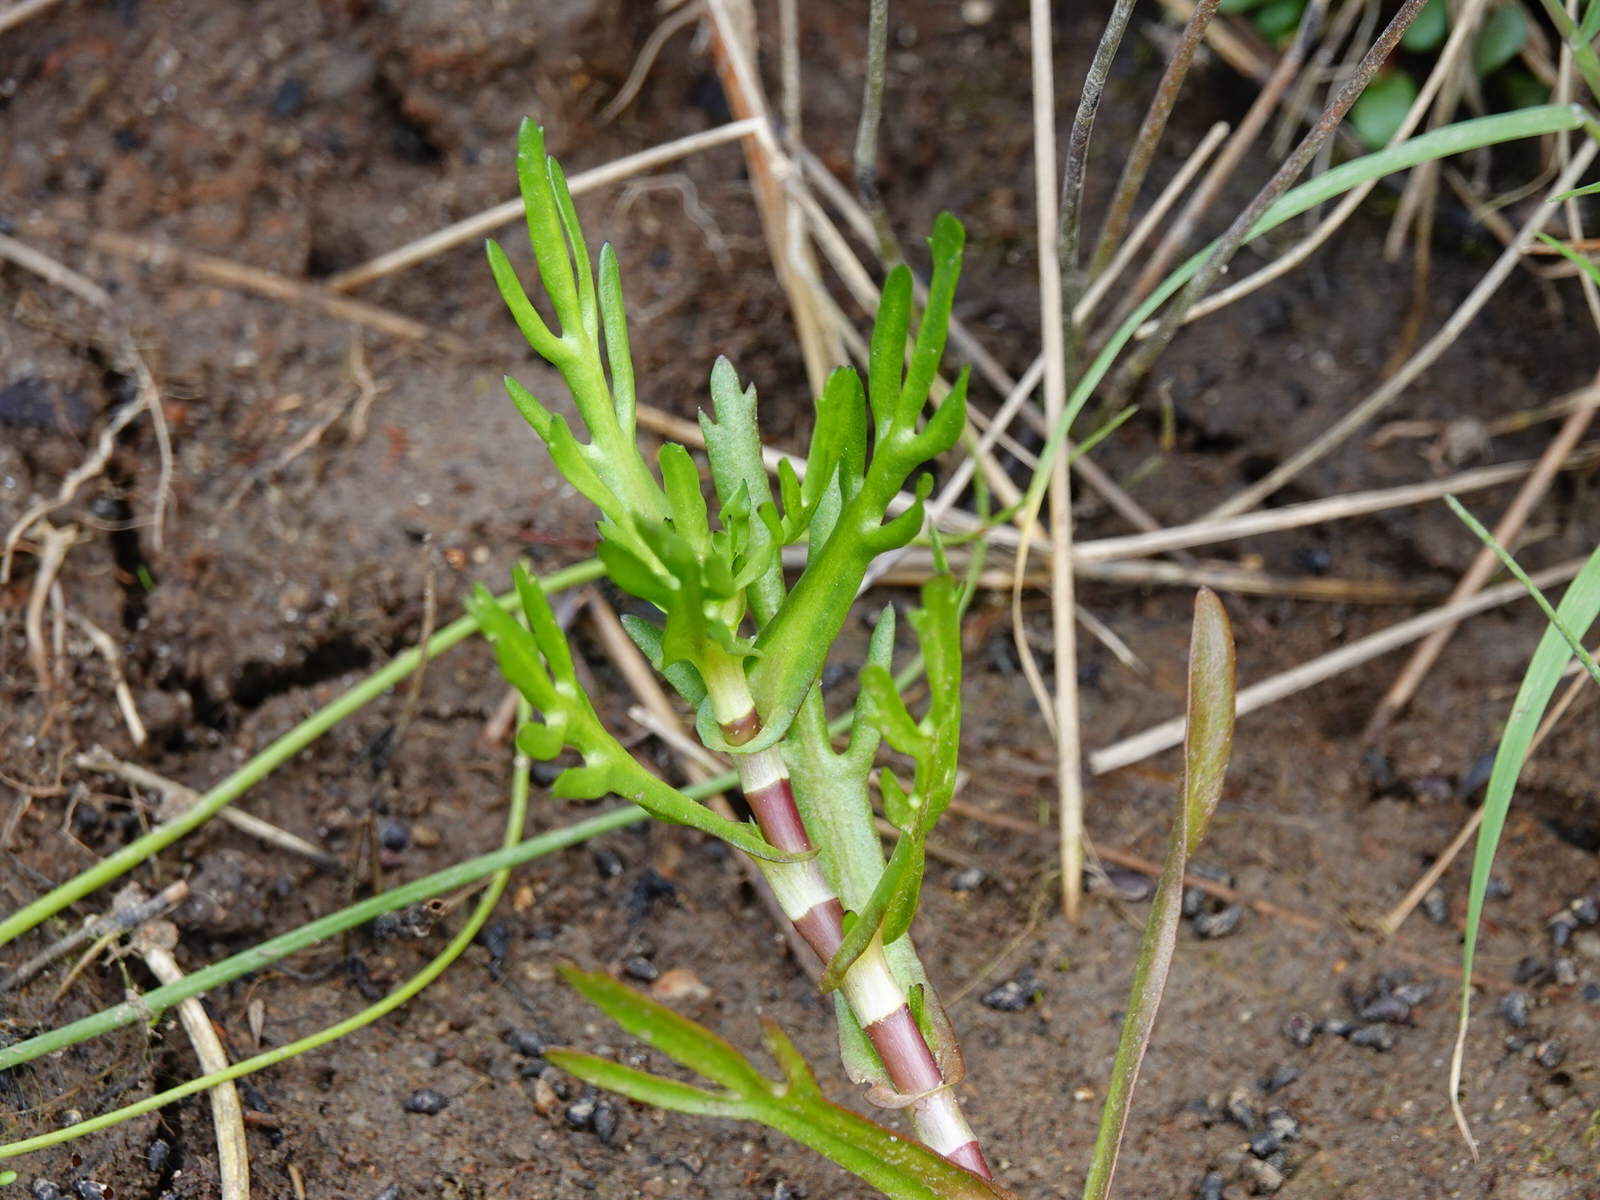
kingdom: Plantae
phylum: Tracheophyta
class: Magnoliopsida
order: Asterales
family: Asteraceae
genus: Cotula
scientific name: Cotula coronopifolia
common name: Buttonweed
